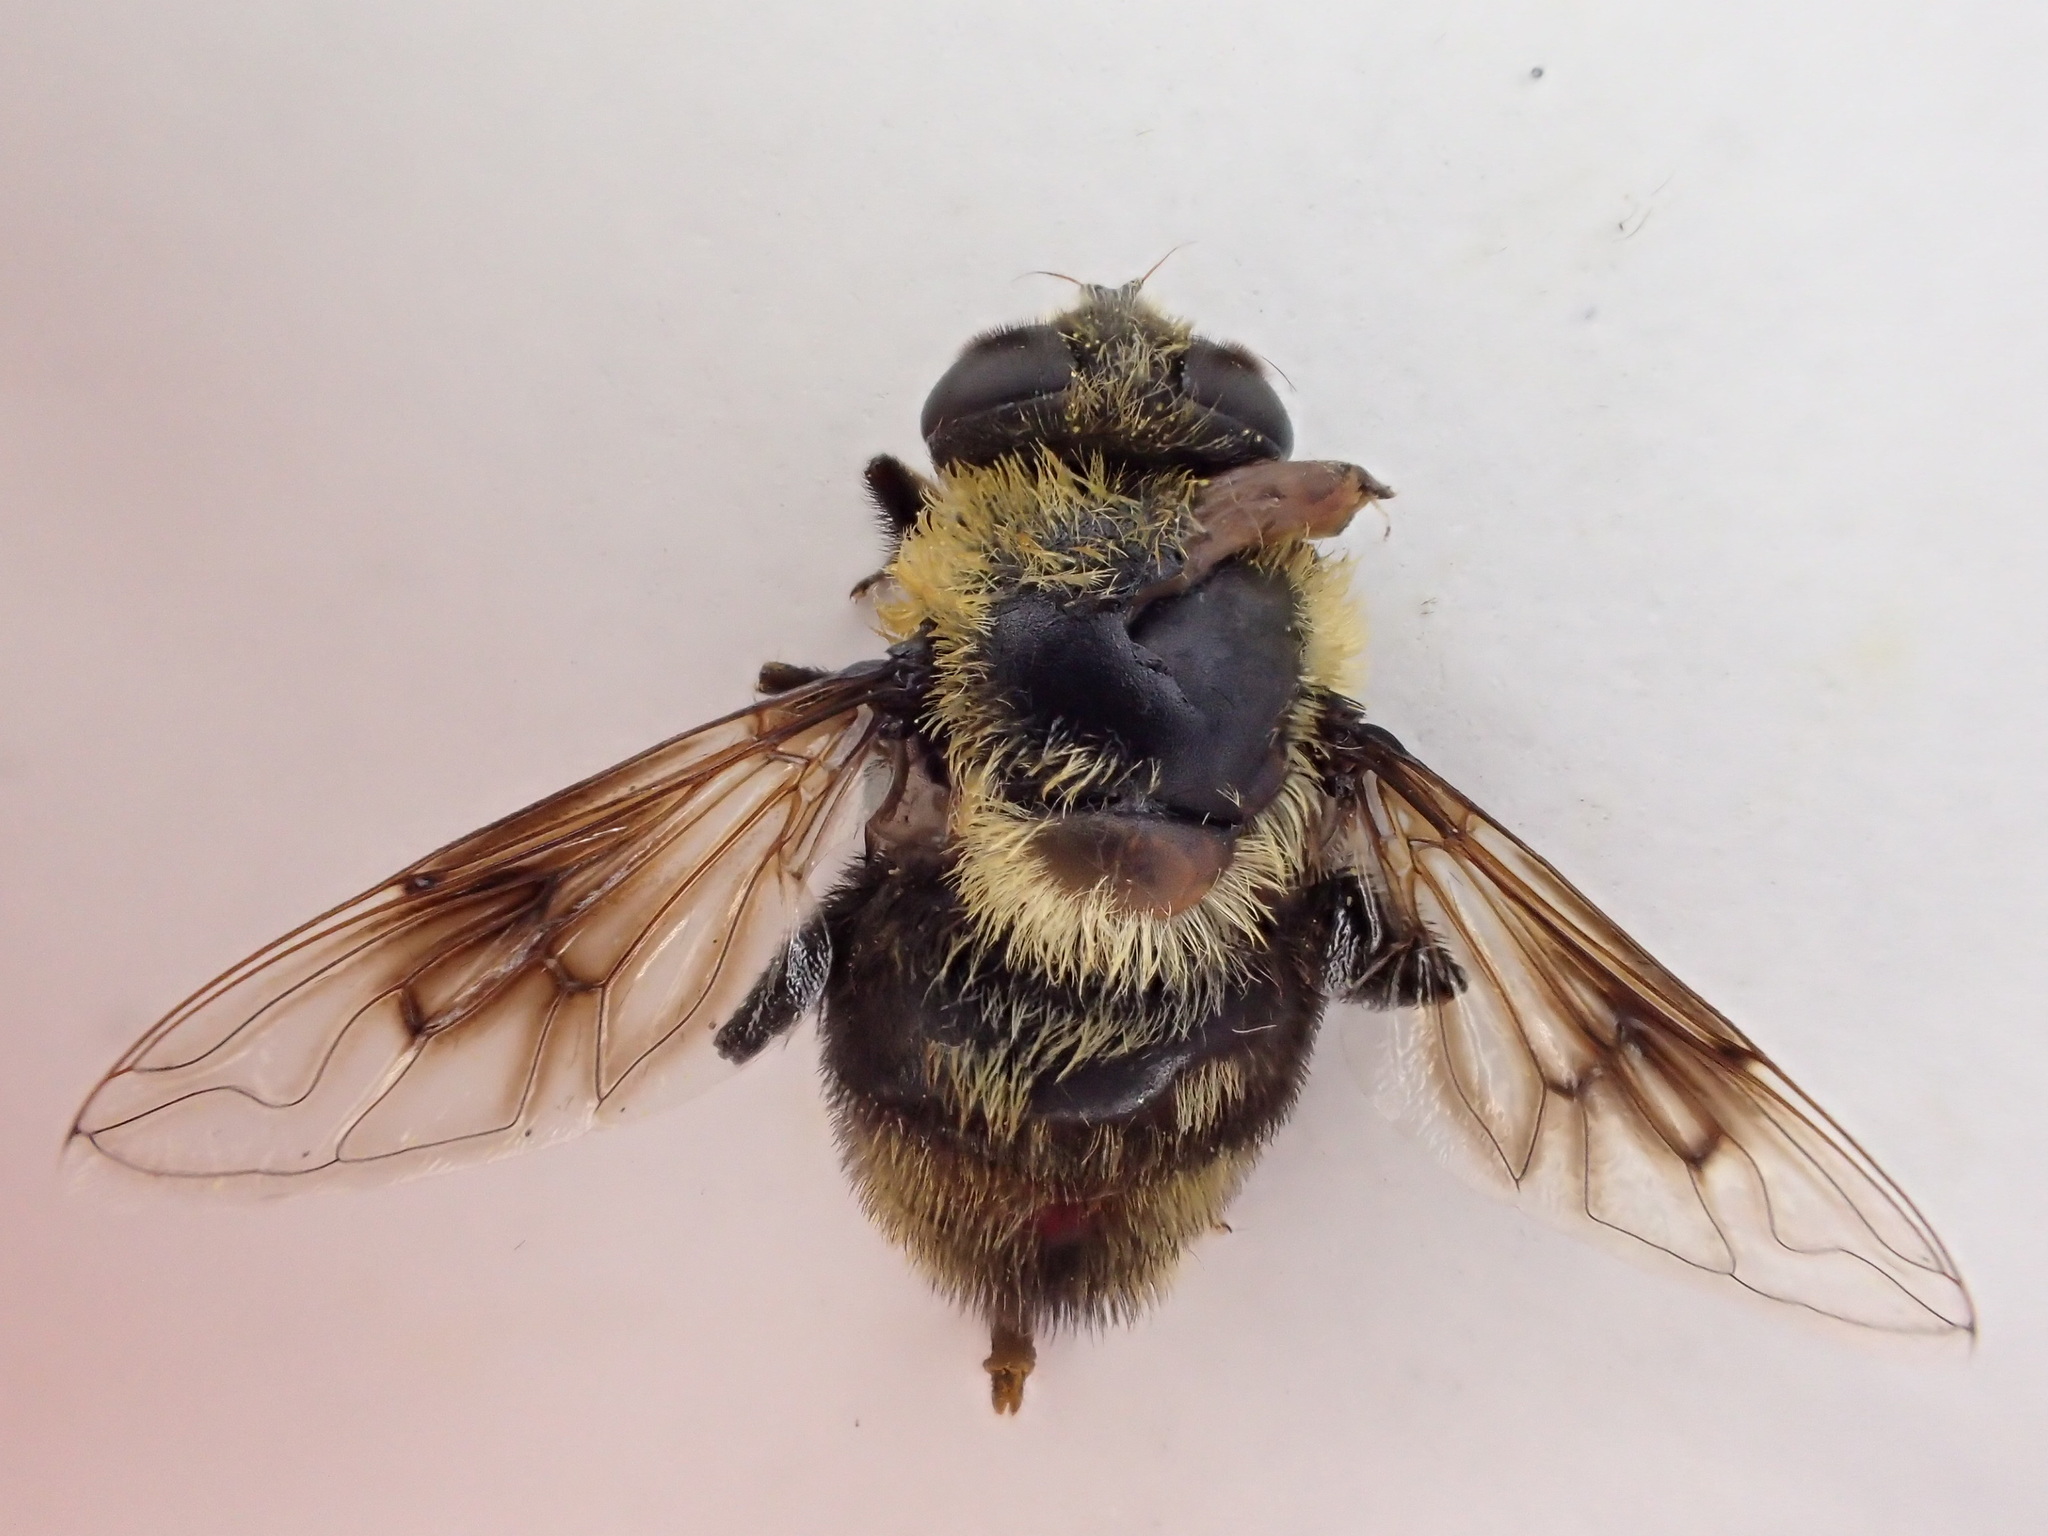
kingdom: Animalia
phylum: Arthropoda
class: Insecta
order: Diptera
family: Syrphidae
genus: Eristalis
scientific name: Eristalis anthophorina
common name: Orange-spotted drone fly
